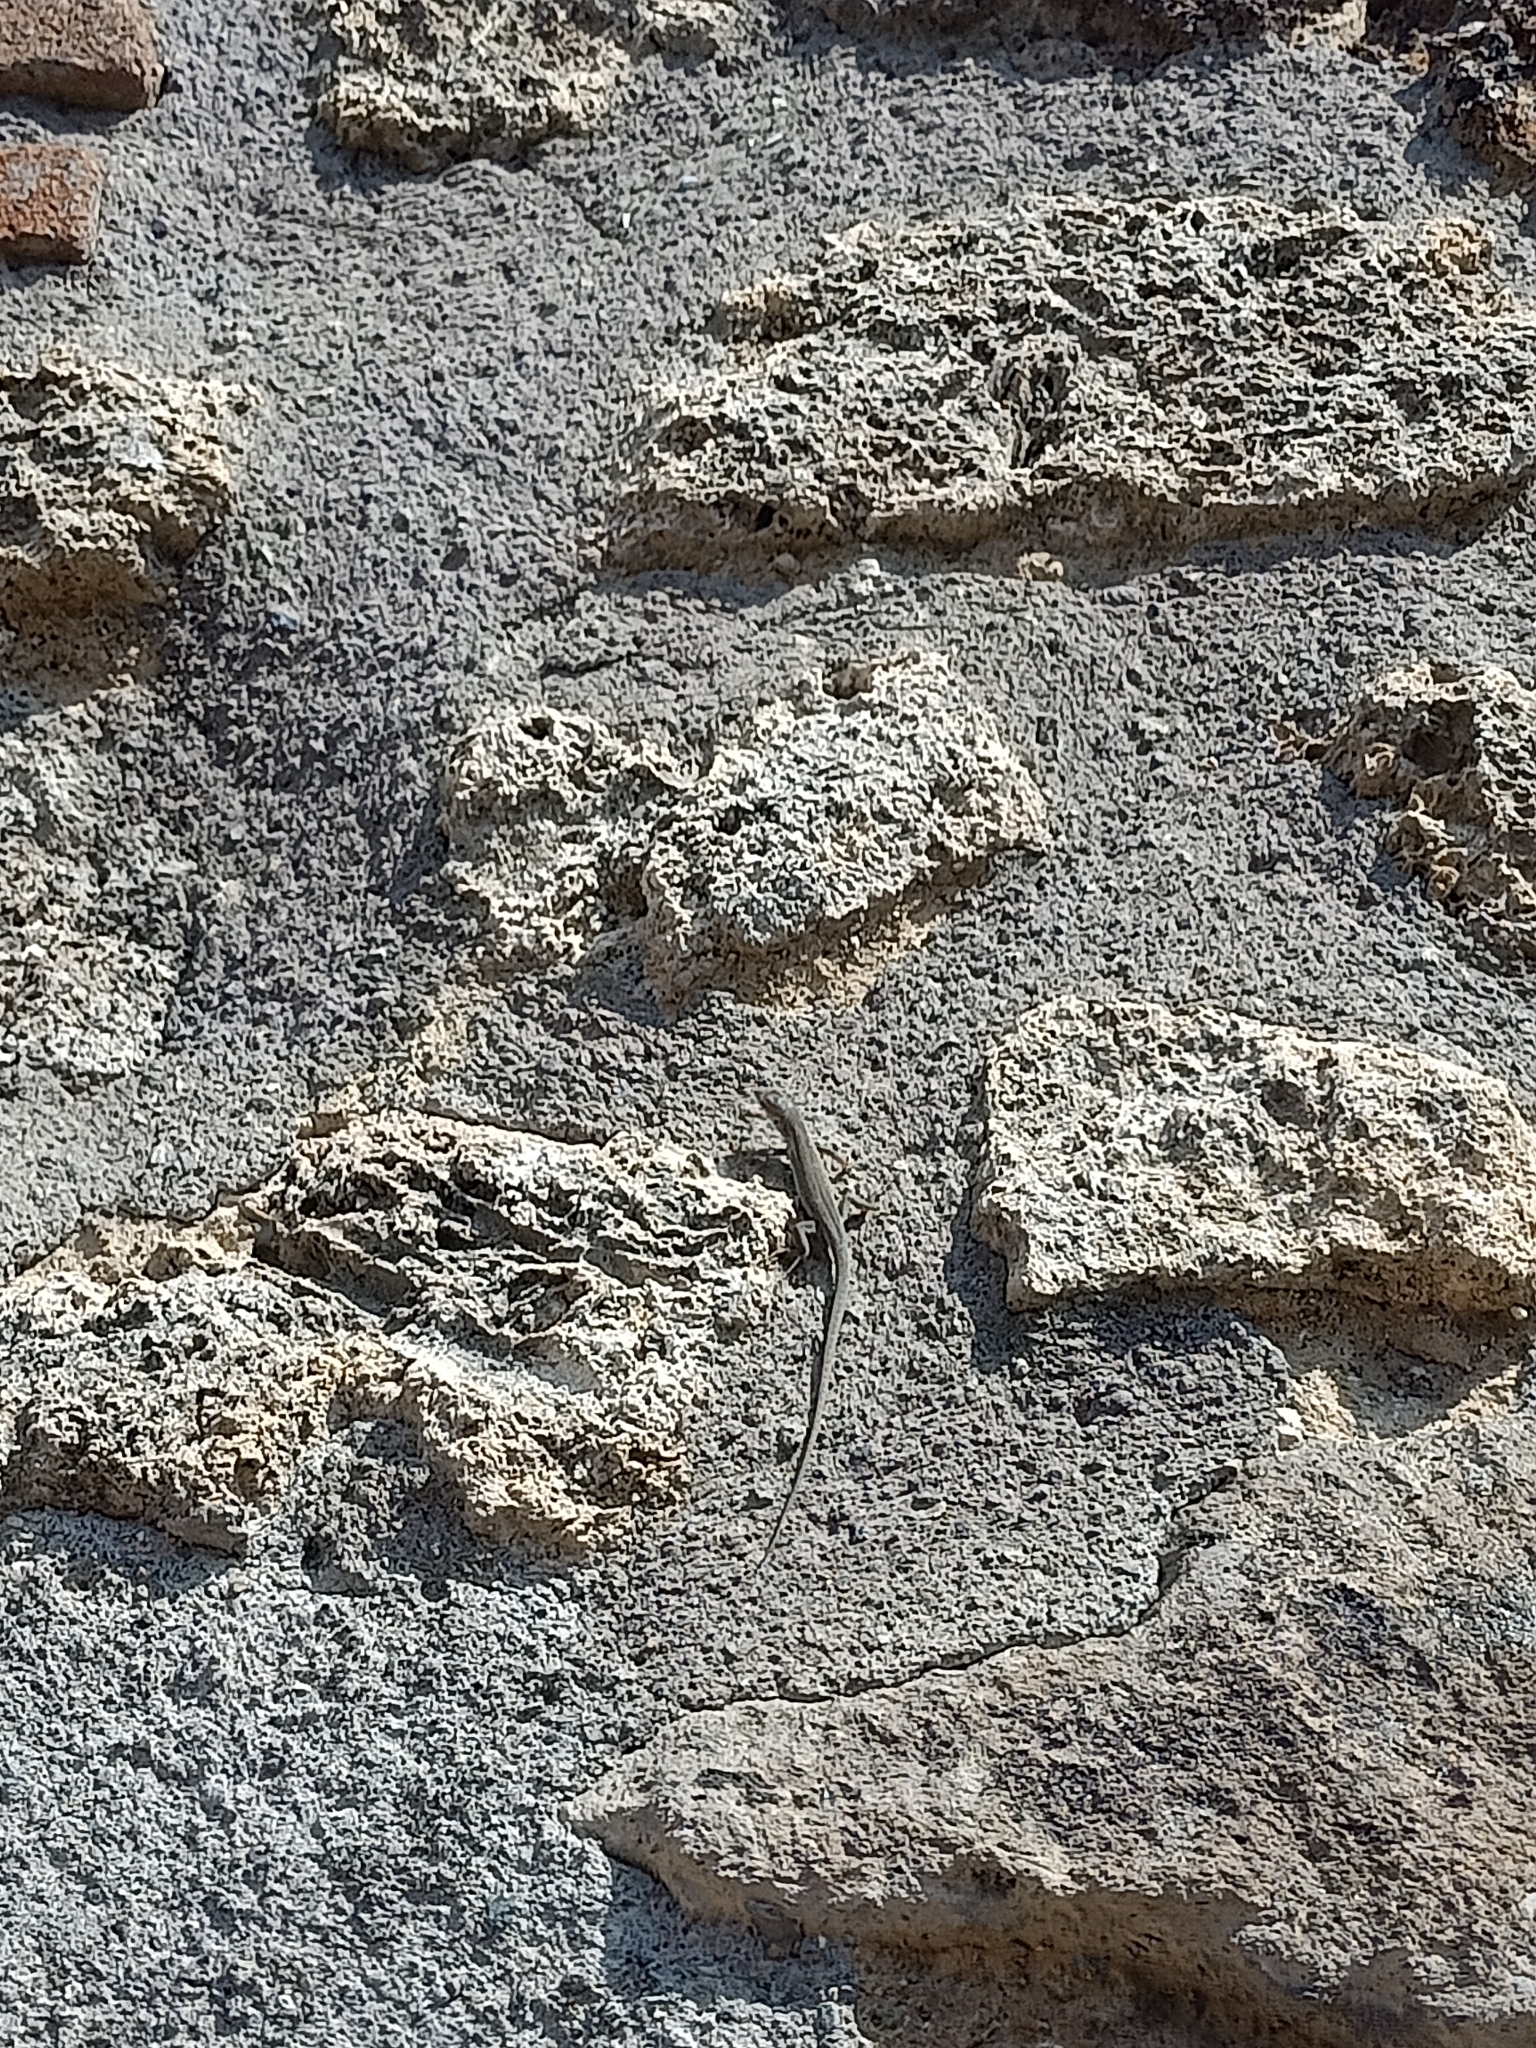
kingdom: Animalia
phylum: Chordata
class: Squamata
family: Lacertidae
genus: Podarcis
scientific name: Podarcis siculus
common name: Italian wall lizard
